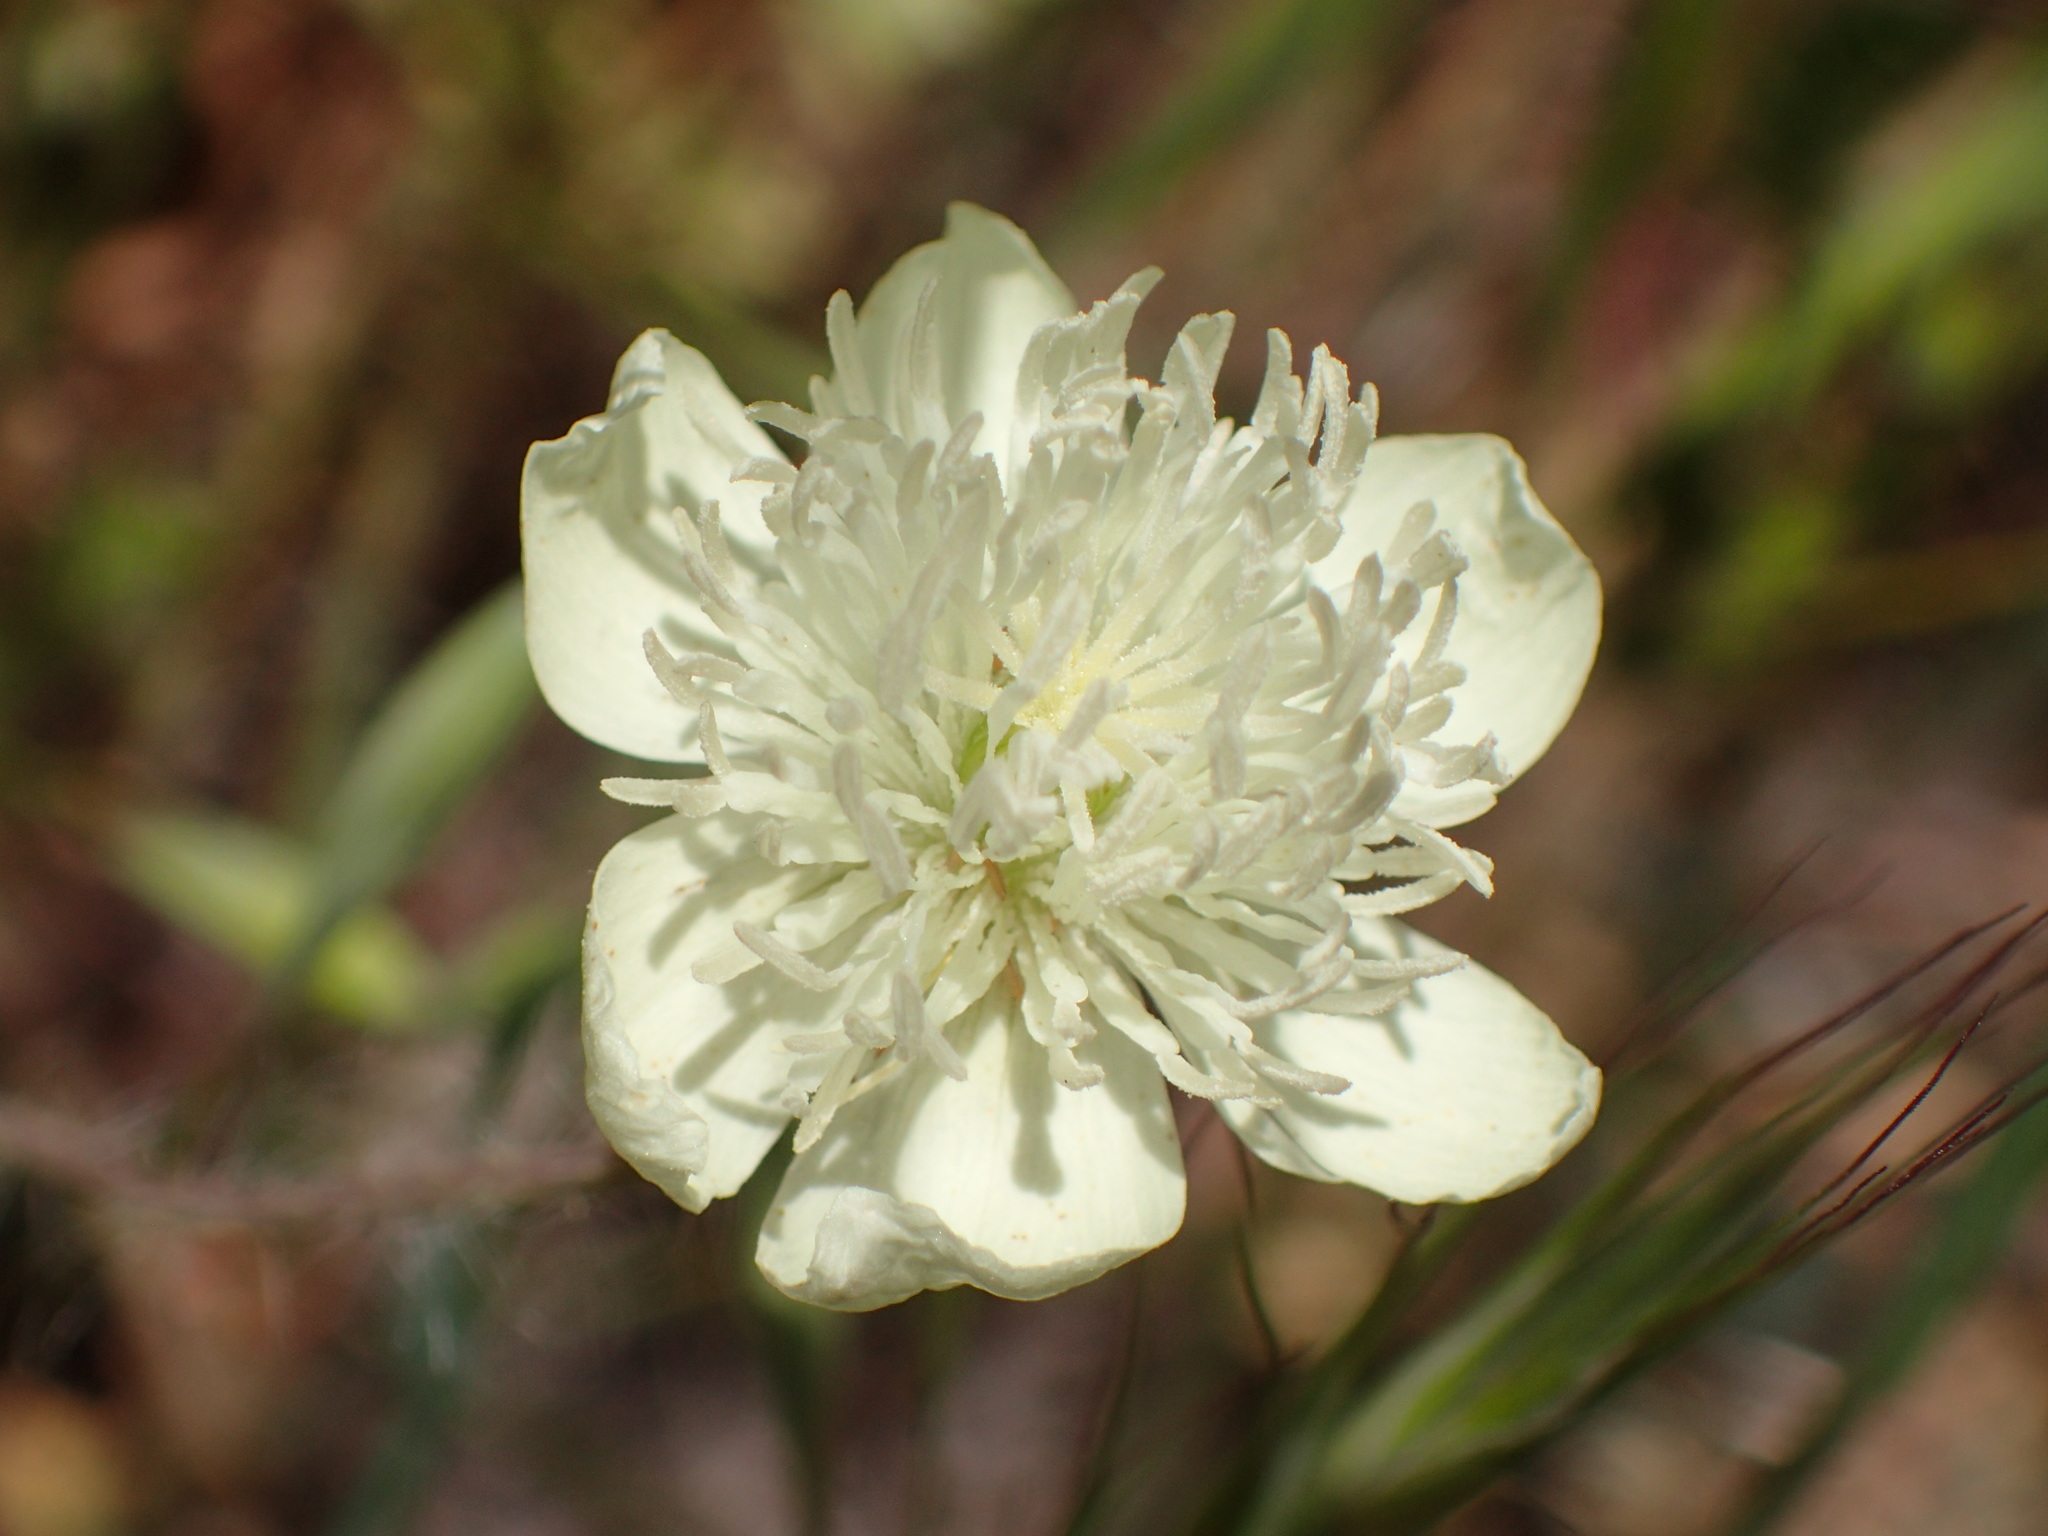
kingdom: Plantae
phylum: Tracheophyta
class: Magnoliopsida
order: Ranunculales
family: Papaveraceae
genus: Platystemon
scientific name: Platystemon californicus
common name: Cream-cups
